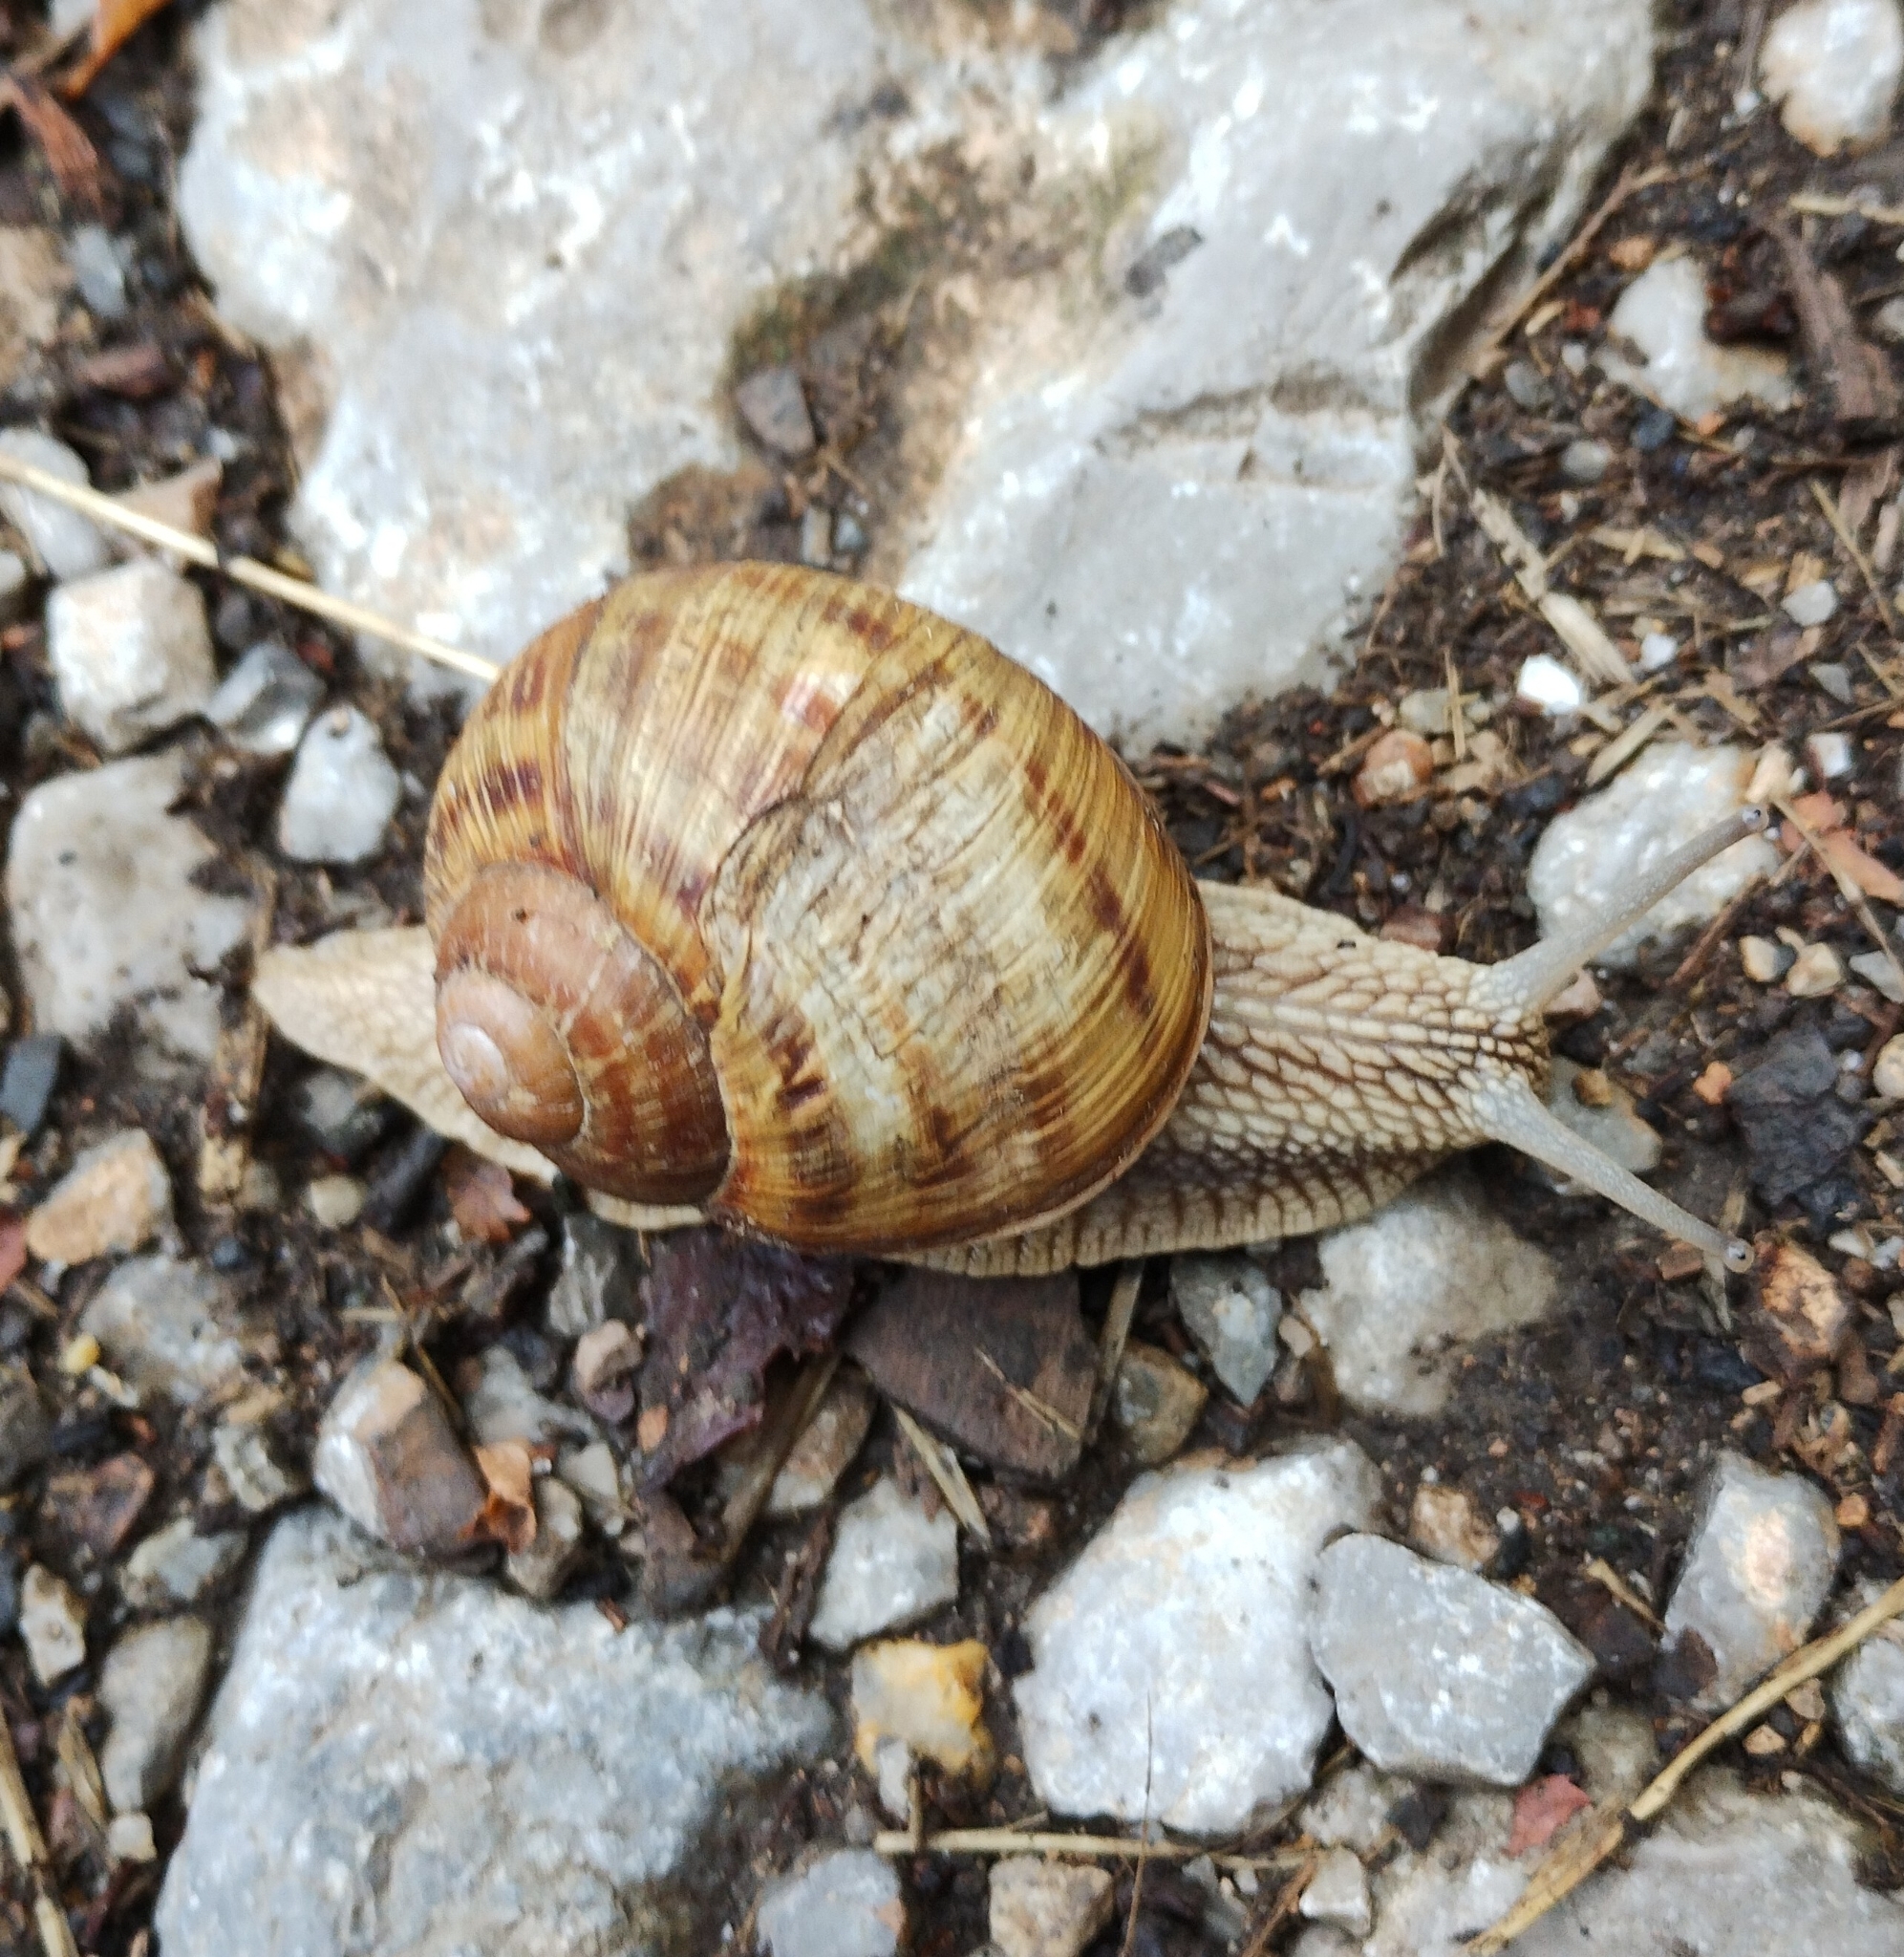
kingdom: Animalia
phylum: Mollusca
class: Gastropoda
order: Stylommatophora
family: Helicidae
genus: Helix
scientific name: Helix thessalica
